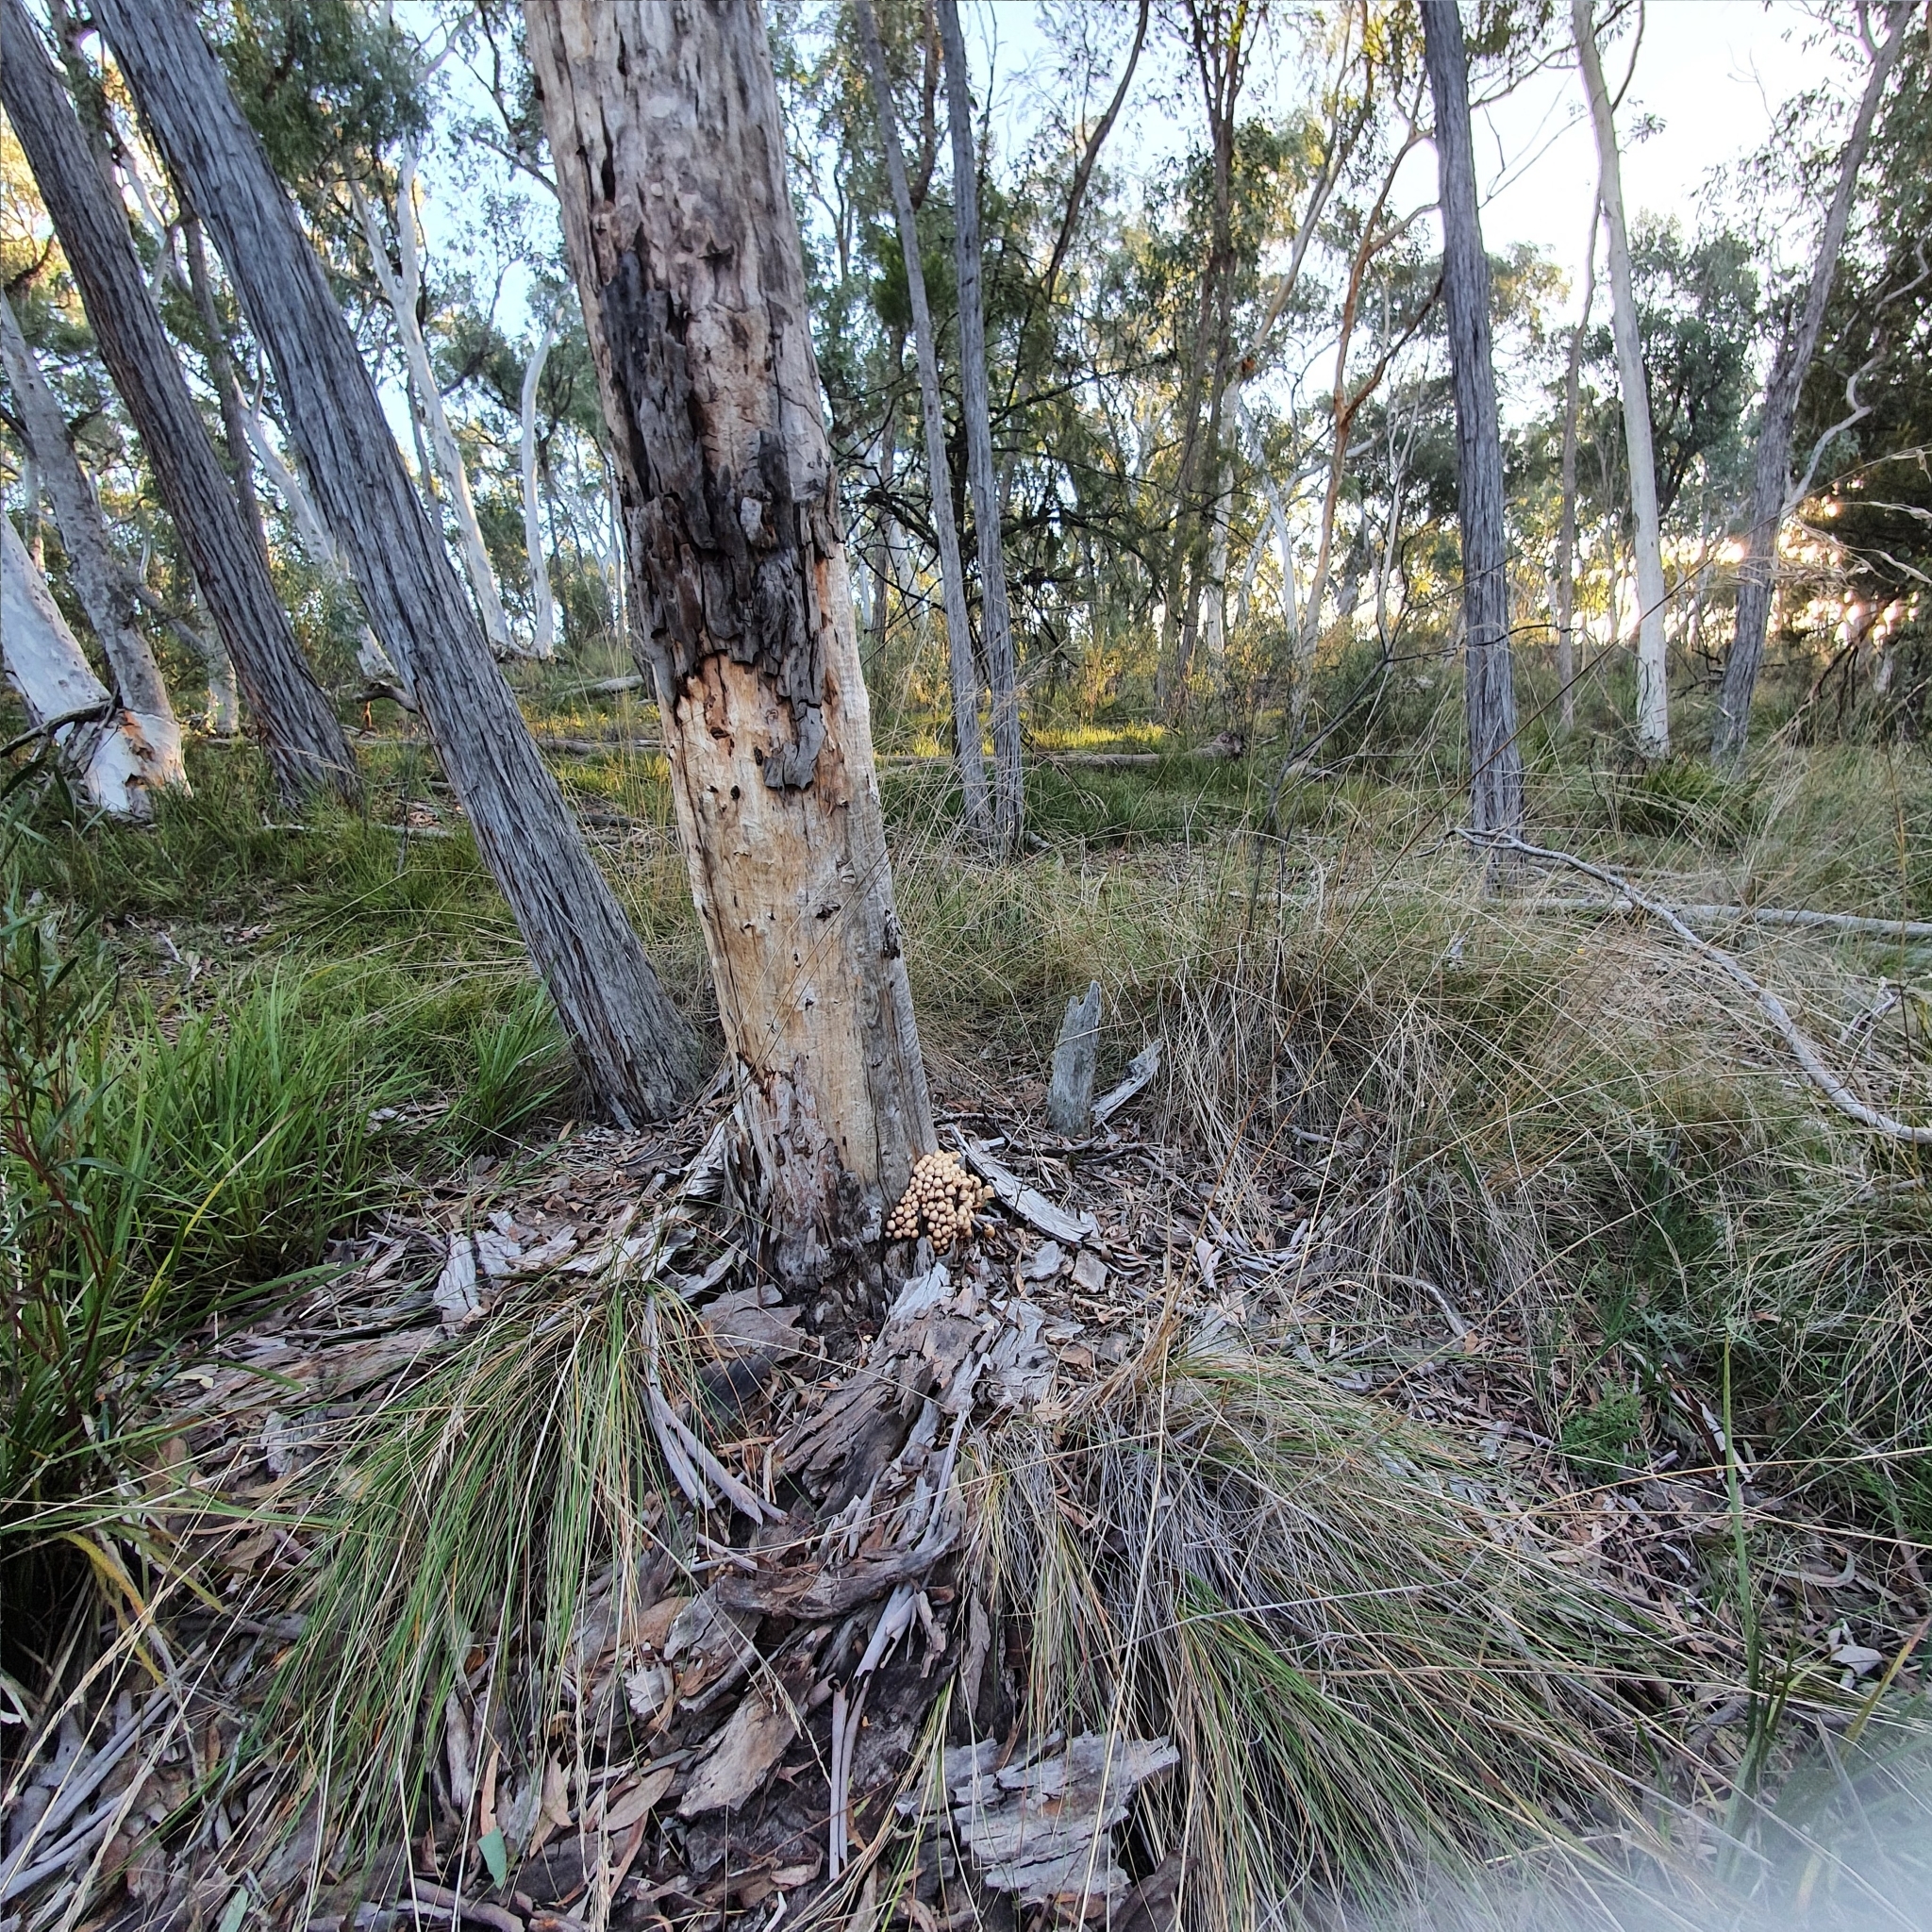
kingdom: Fungi
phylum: Basidiomycota
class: Agaricomycetes
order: Agaricales
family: Mycenaceae
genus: Mycena
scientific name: Mycena clarkeana
